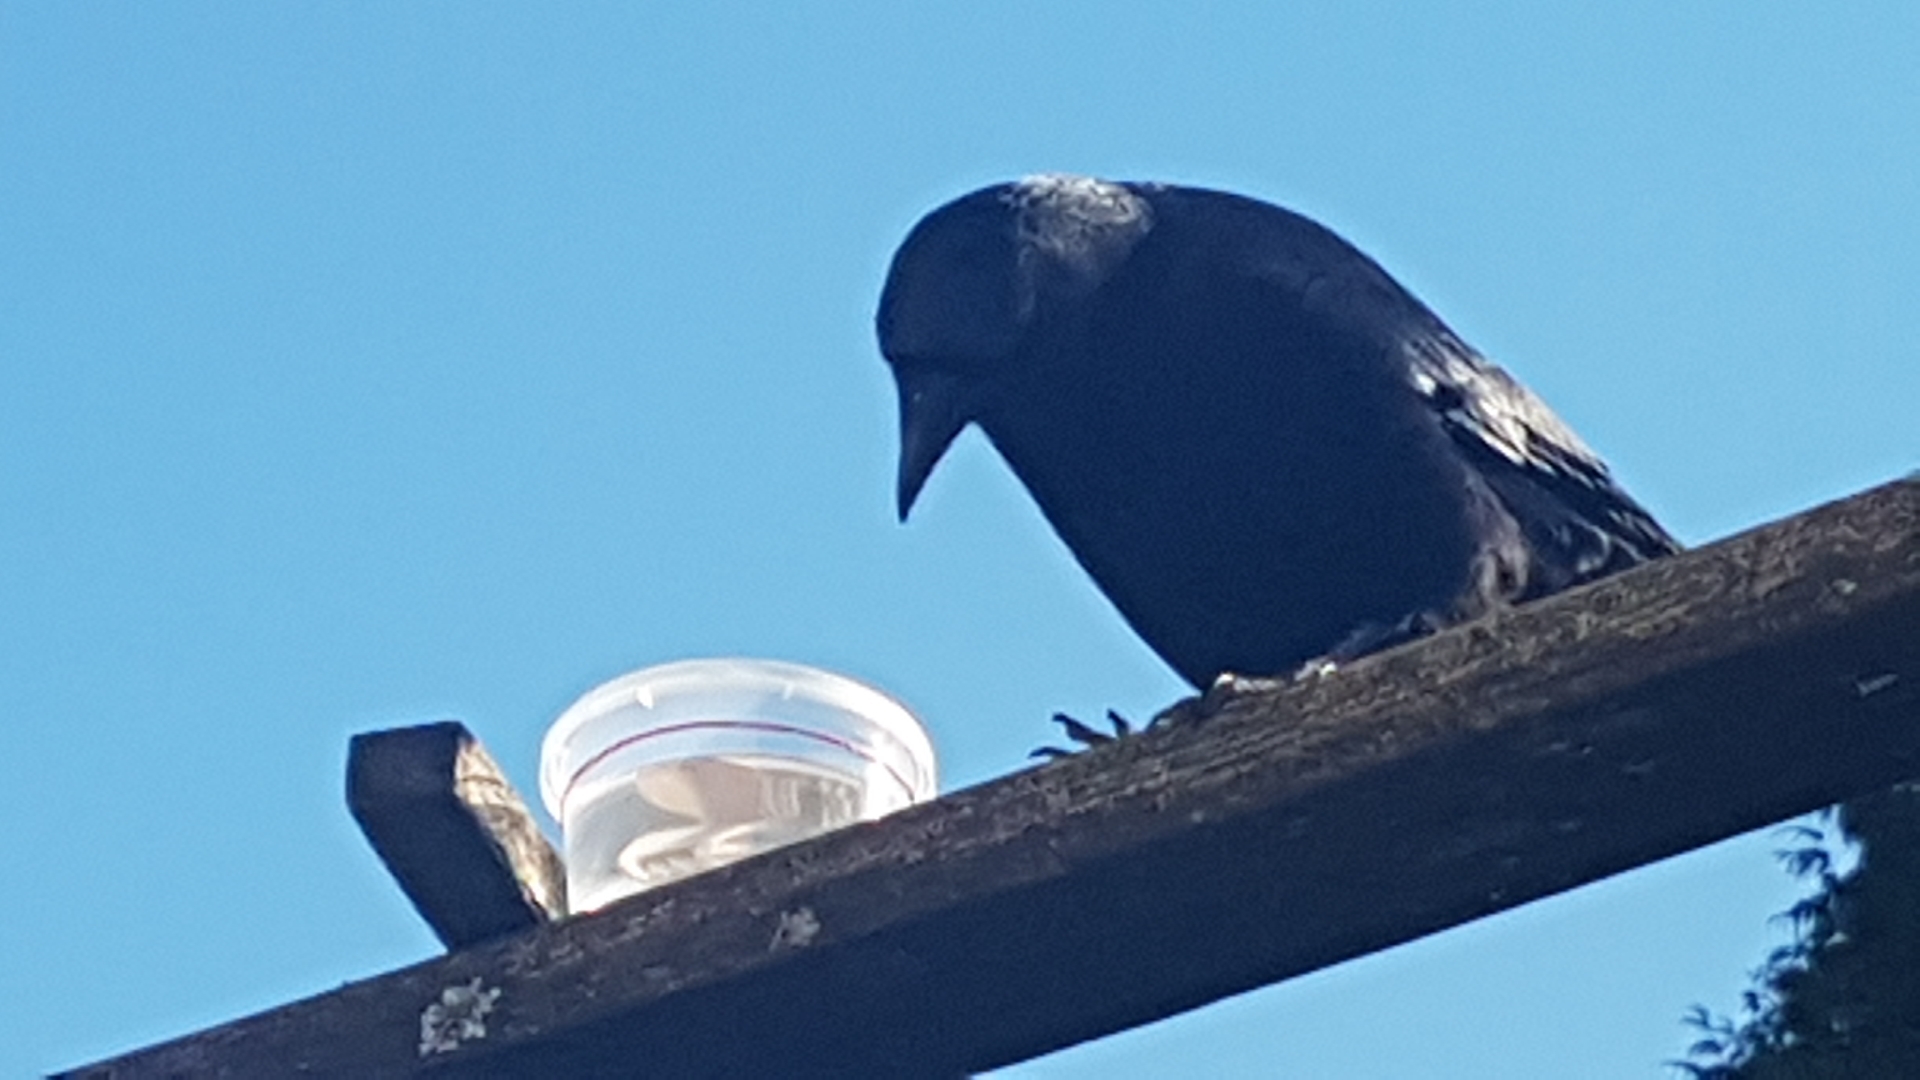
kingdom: Animalia
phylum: Chordata
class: Aves
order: Passeriformes
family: Corvidae
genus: Corvus
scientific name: Corvus brachyrhynchos
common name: American crow
